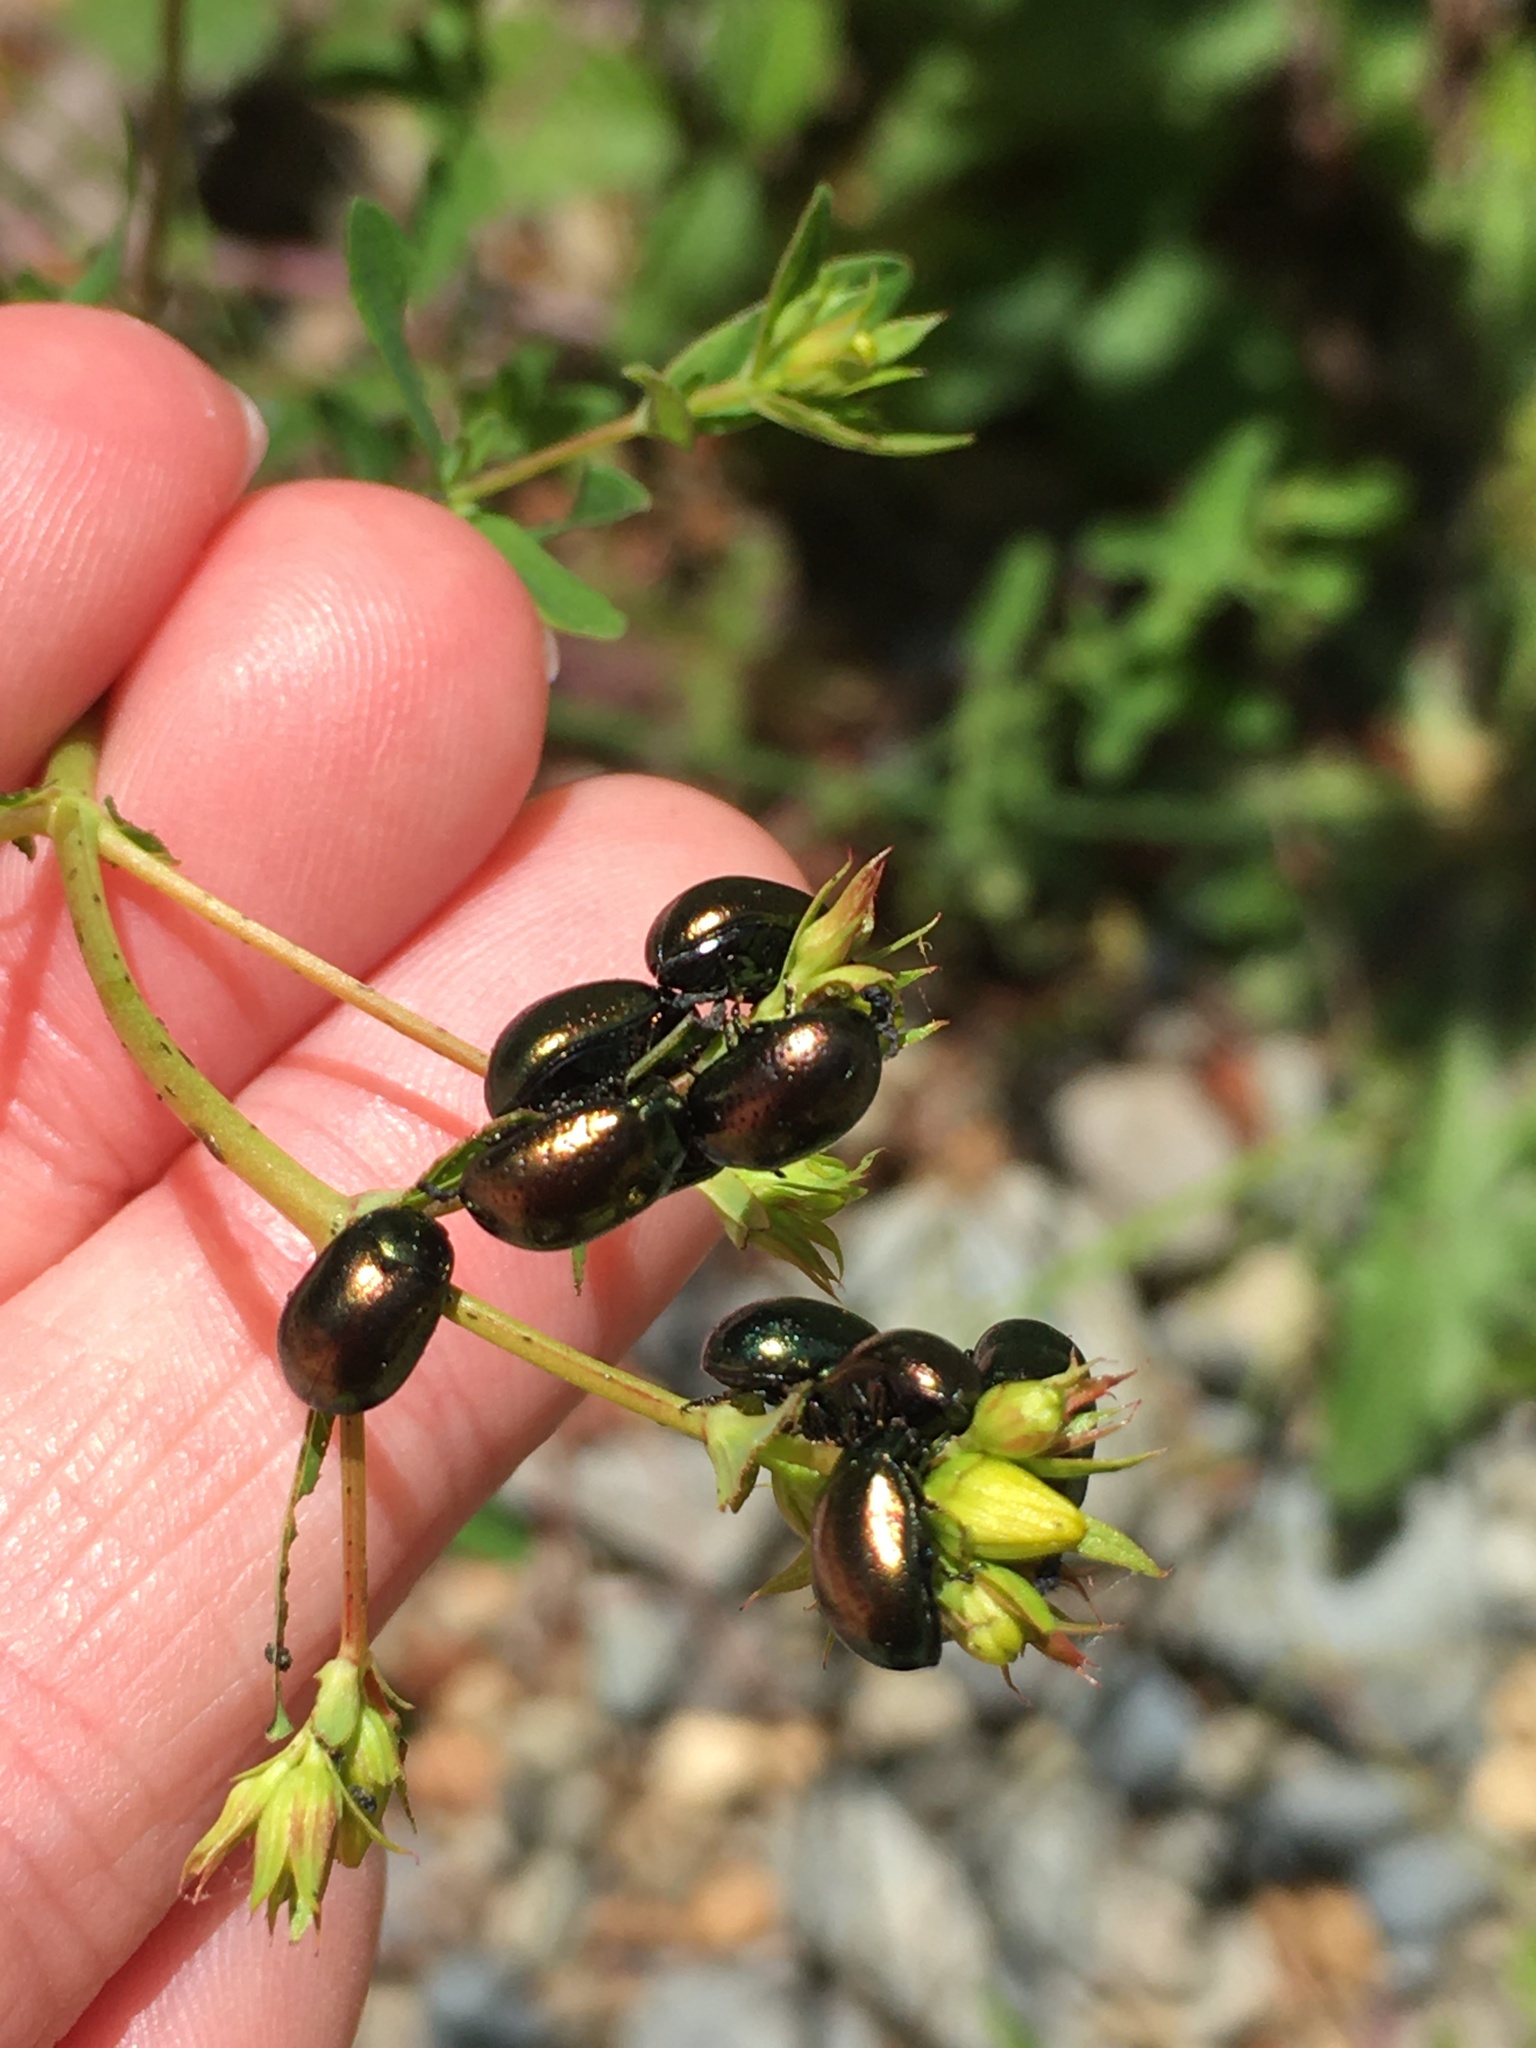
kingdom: Animalia
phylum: Arthropoda
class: Insecta
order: Coleoptera
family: Chrysomelidae
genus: Chrysolina
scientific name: Chrysolina hyperici
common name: St. johnswort beetle
